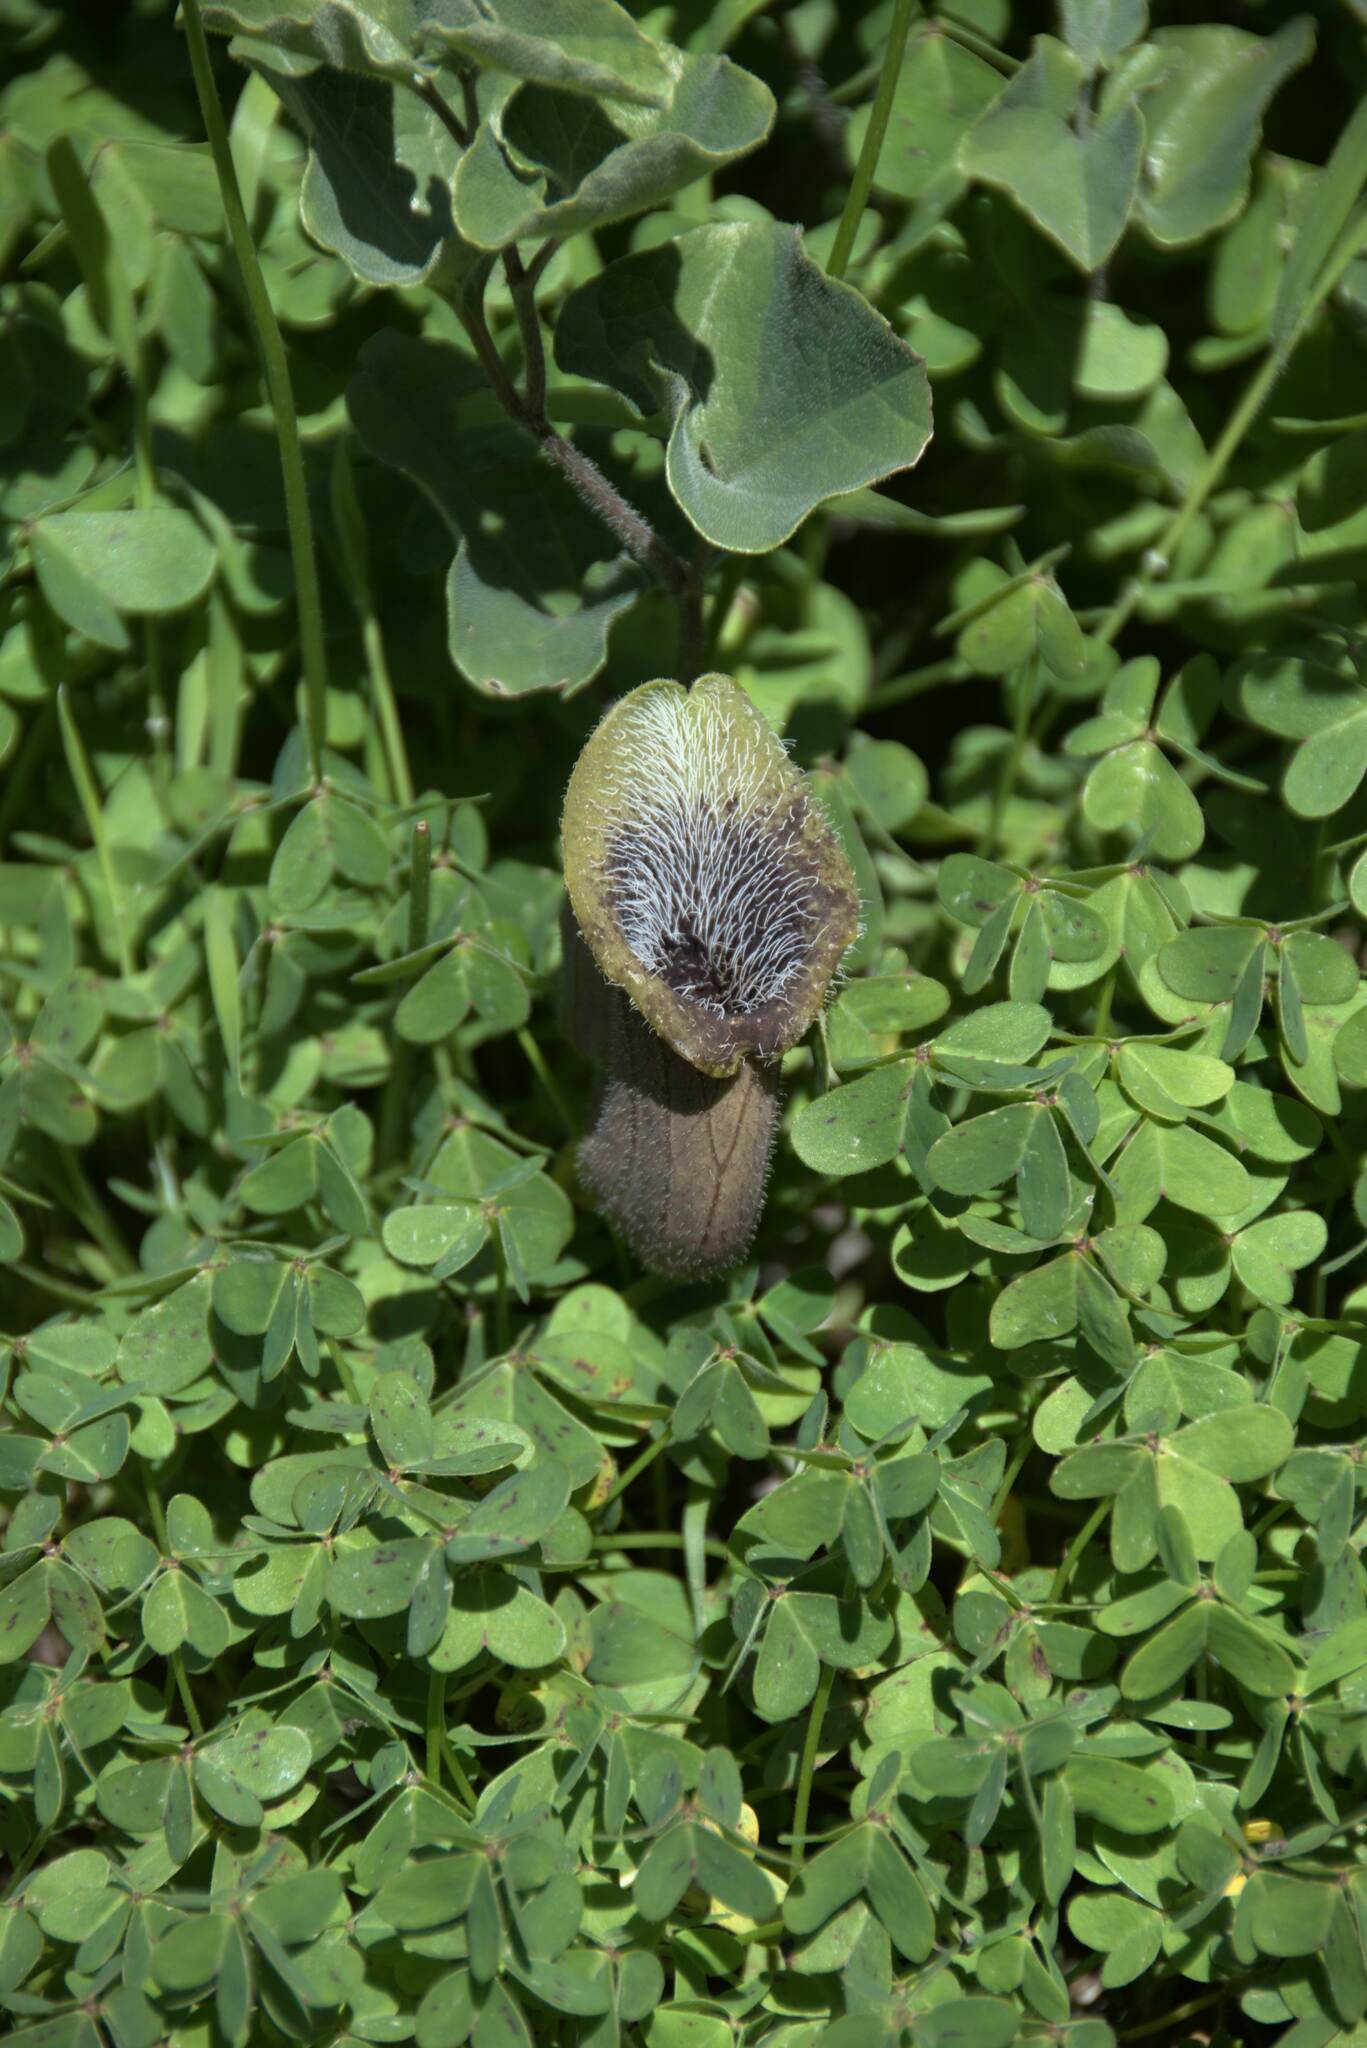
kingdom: Plantae
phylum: Tracheophyta
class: Magnoliopsida
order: Piperales
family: Aristolochiaceae
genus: Aristolochia
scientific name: Aristolochia cretica
